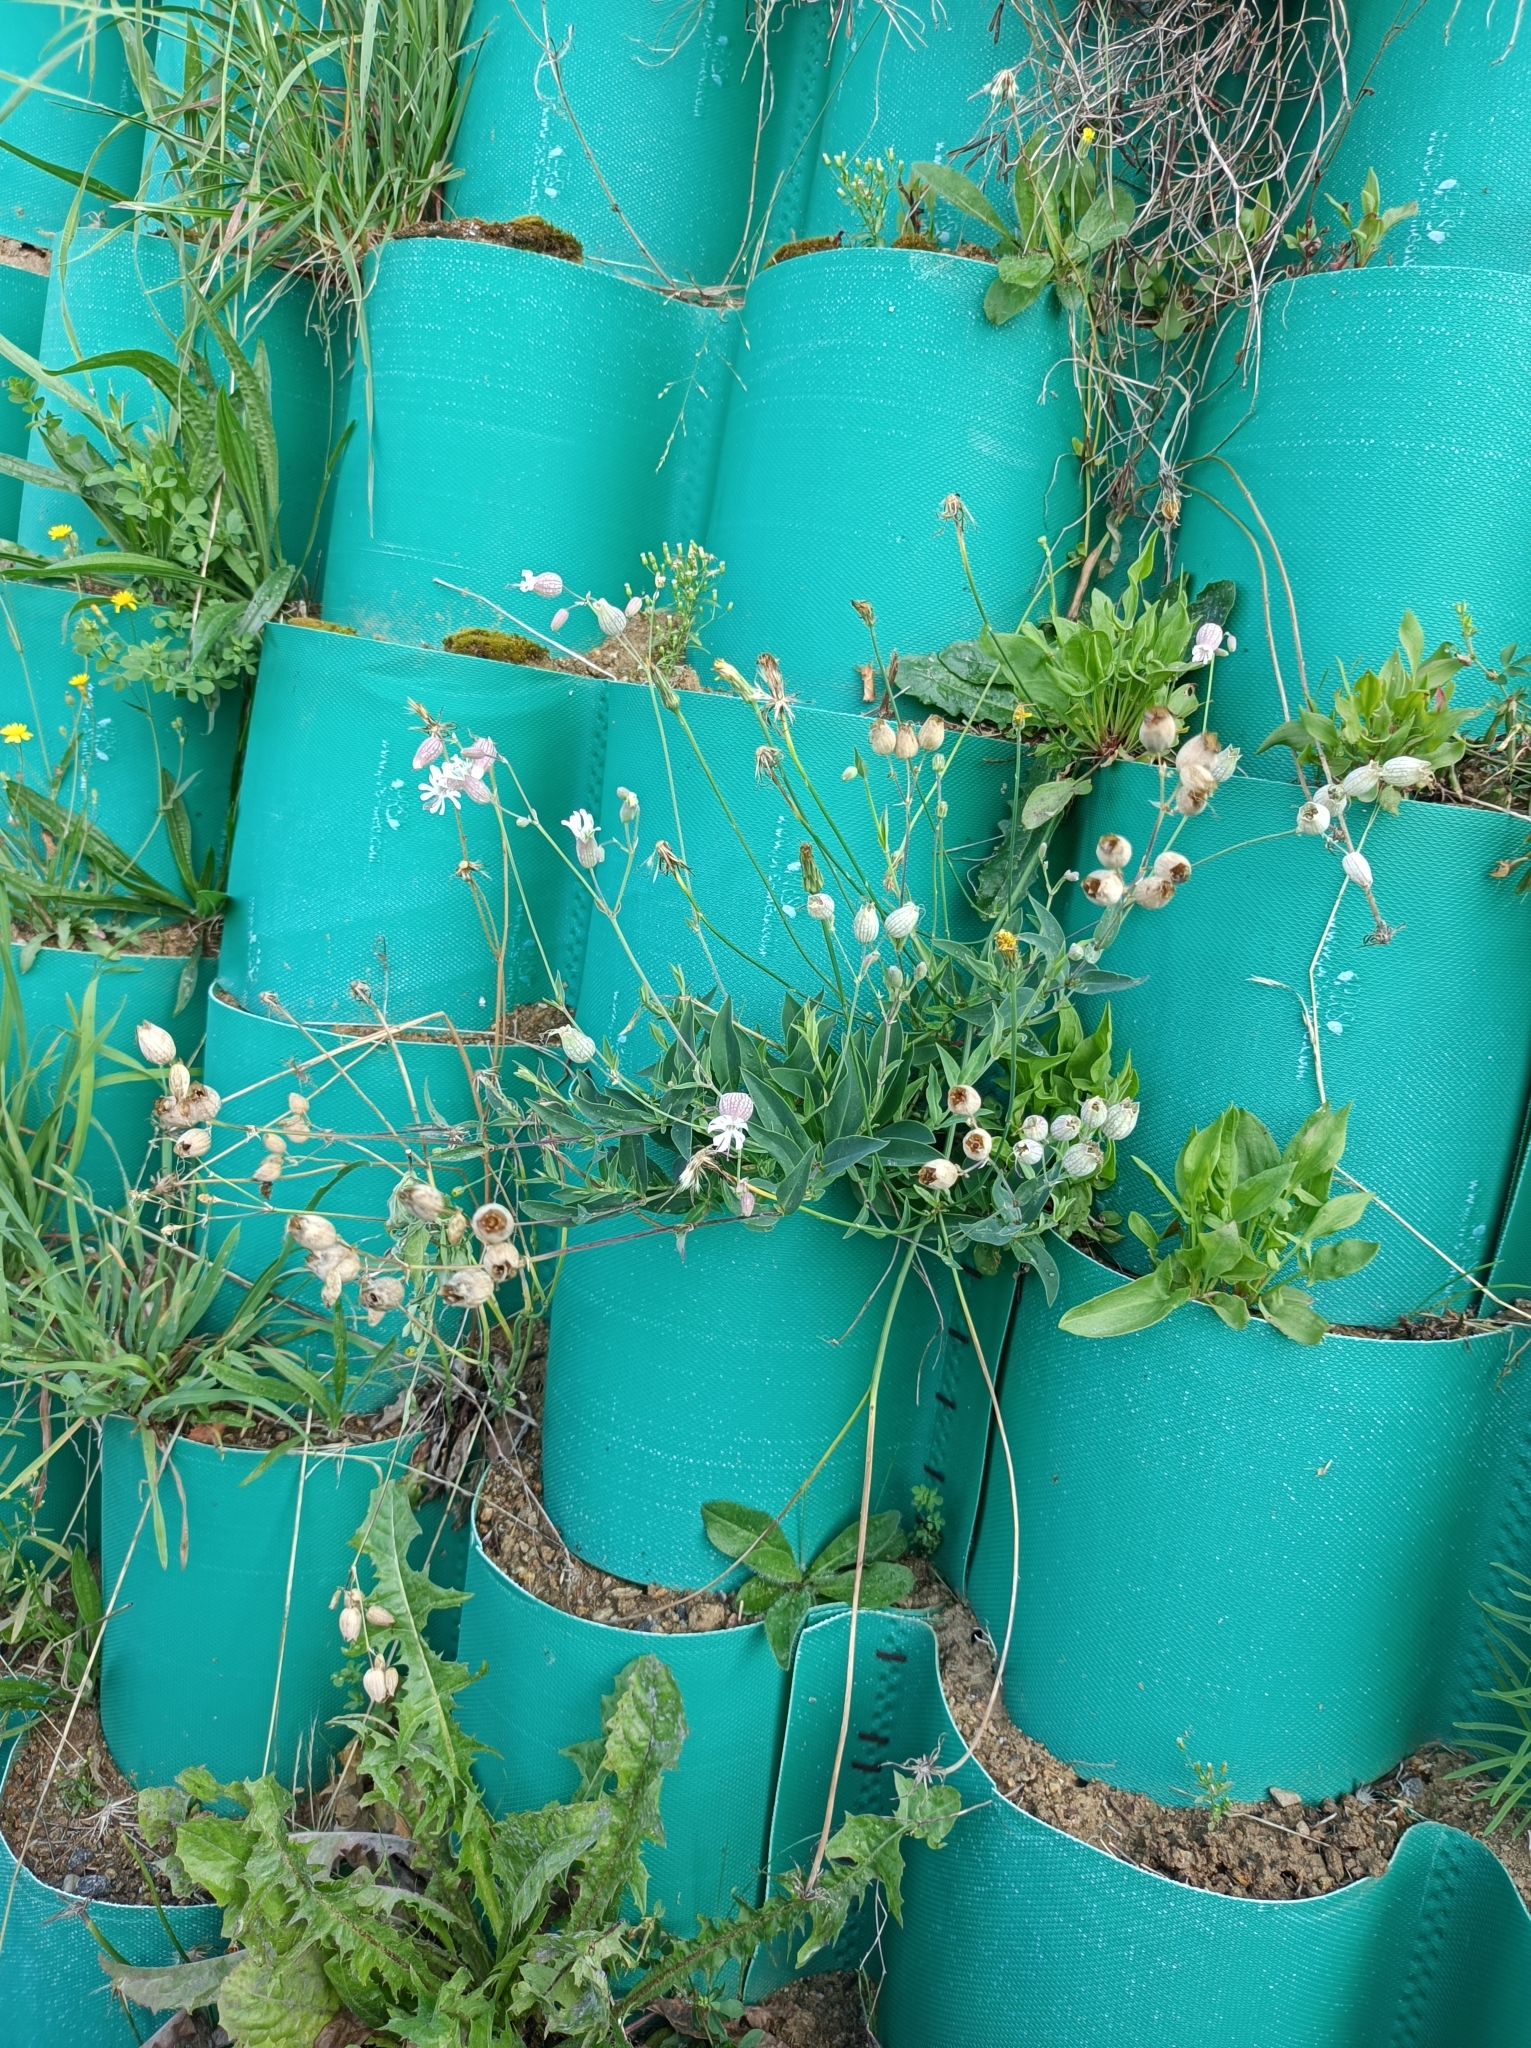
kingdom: Plantae
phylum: Tracheophyta
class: Magnoliopsida
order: Caryophyllales
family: Caryophyllaceae
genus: Silene
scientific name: Silene vulgaris
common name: Bladder campion
